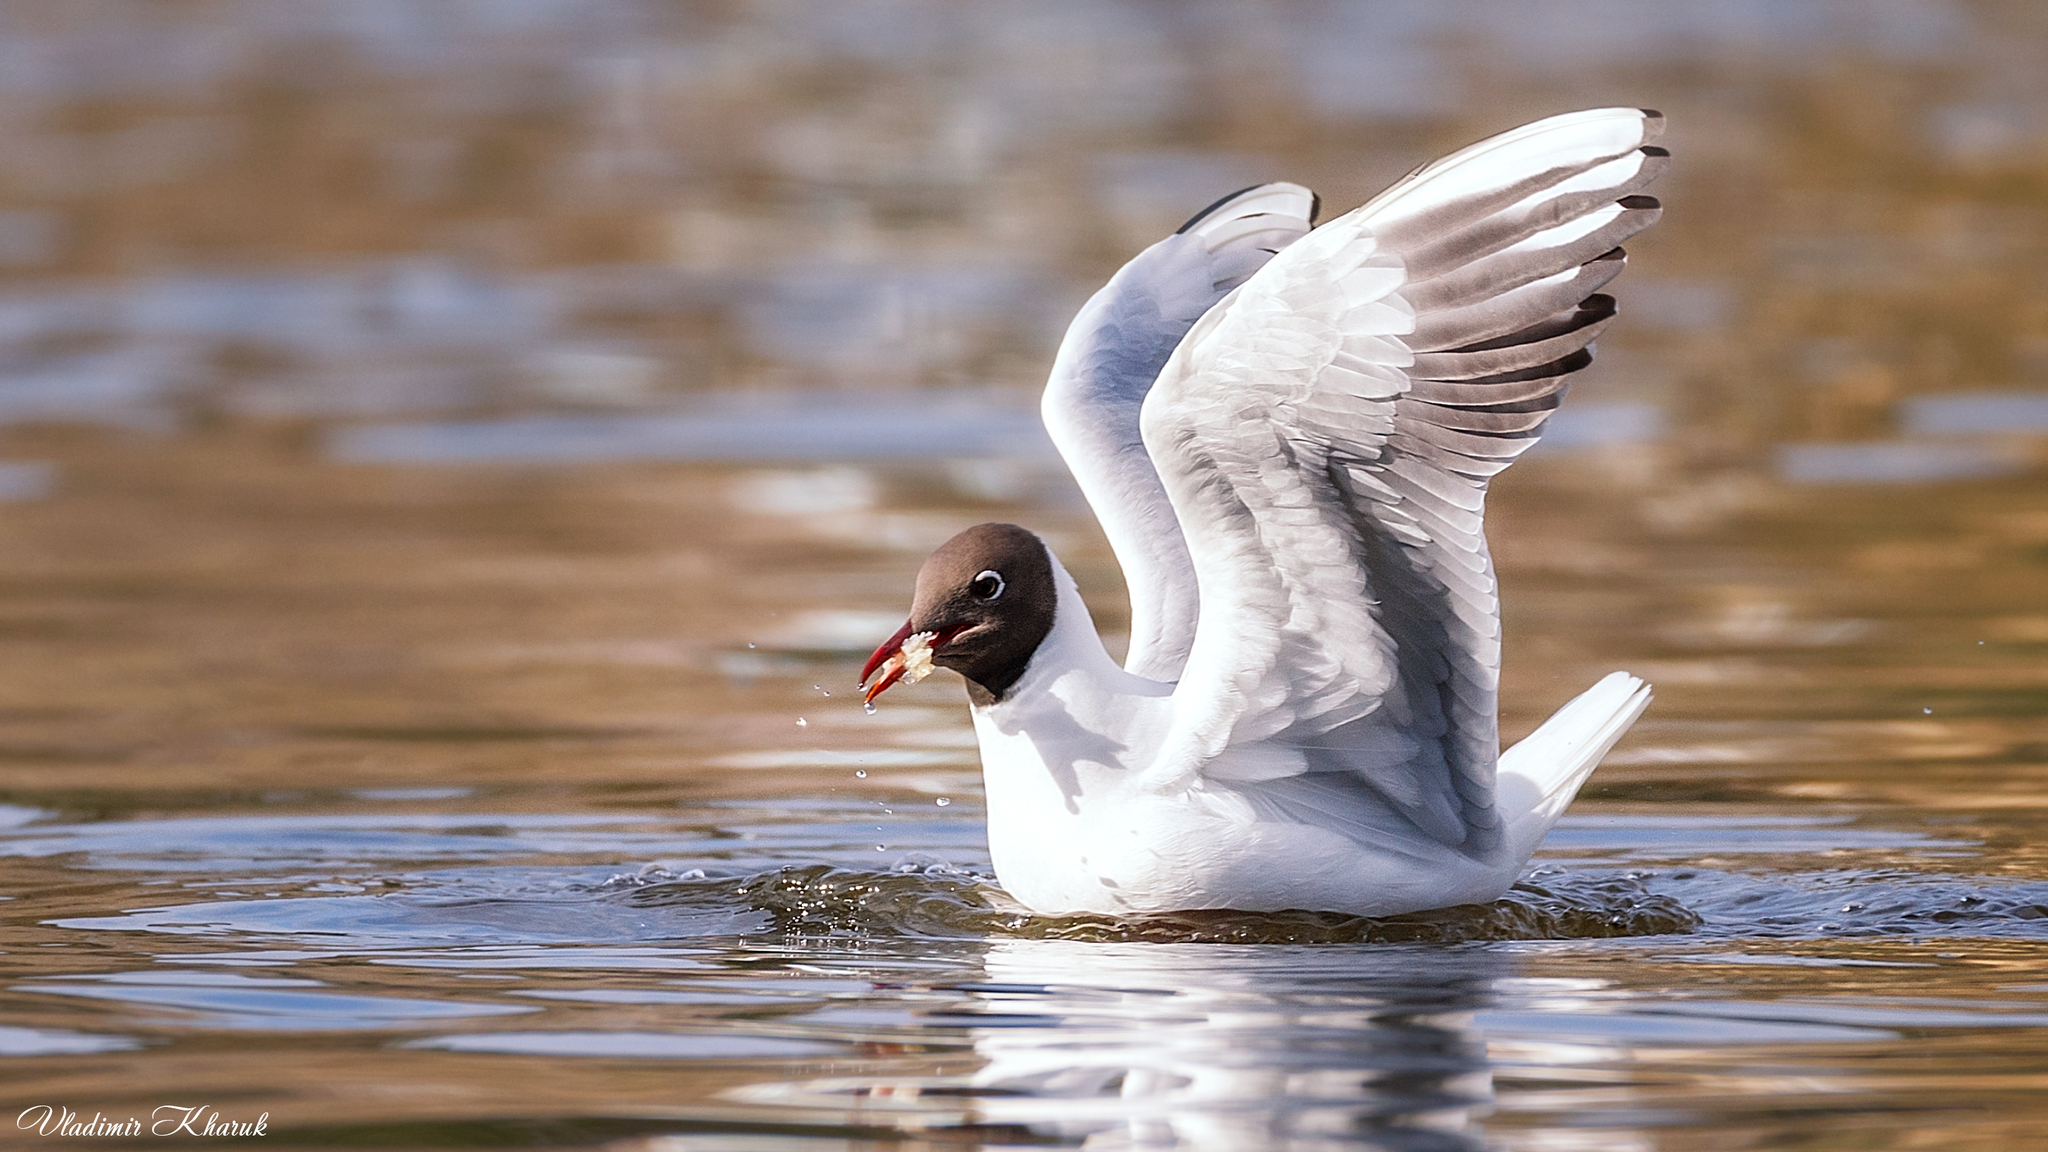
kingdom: Animalia
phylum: Chordata
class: Aves
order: Charadriiformes
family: Laridae
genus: Chroicocephalus
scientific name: Chroicocephalus ridibundus
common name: Black-headed gull
